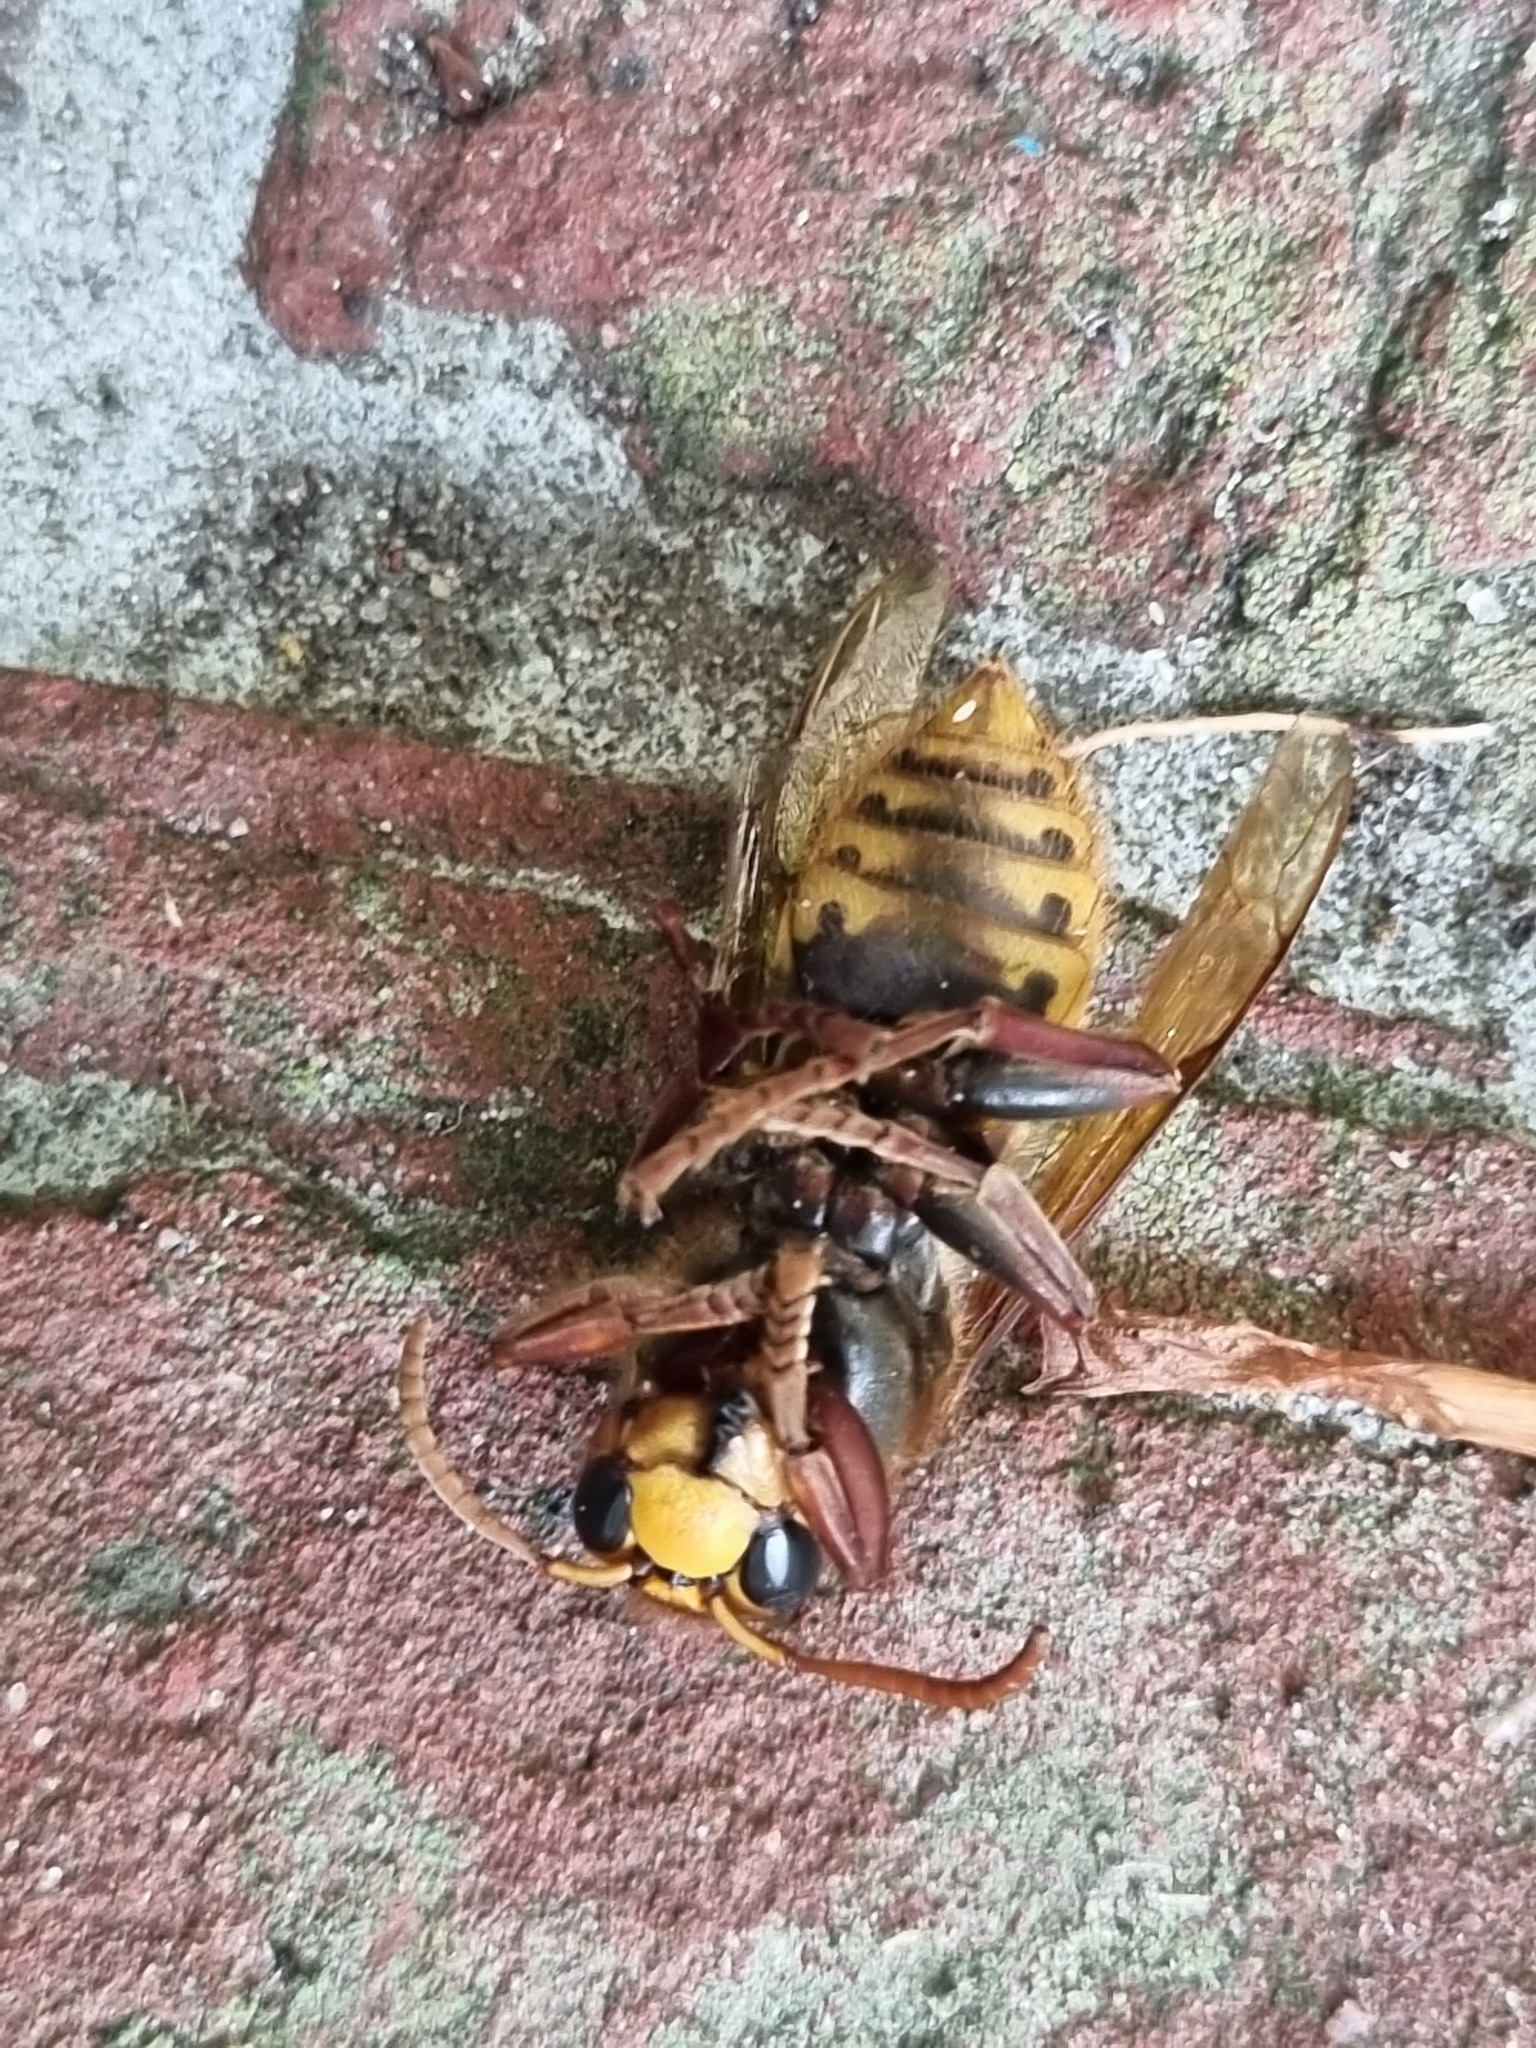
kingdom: Animalia
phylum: Arthropoda
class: Insecta
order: Hymenoptera
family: Vespidae
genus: Vespa
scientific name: Vespa crabro
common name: Hornet
